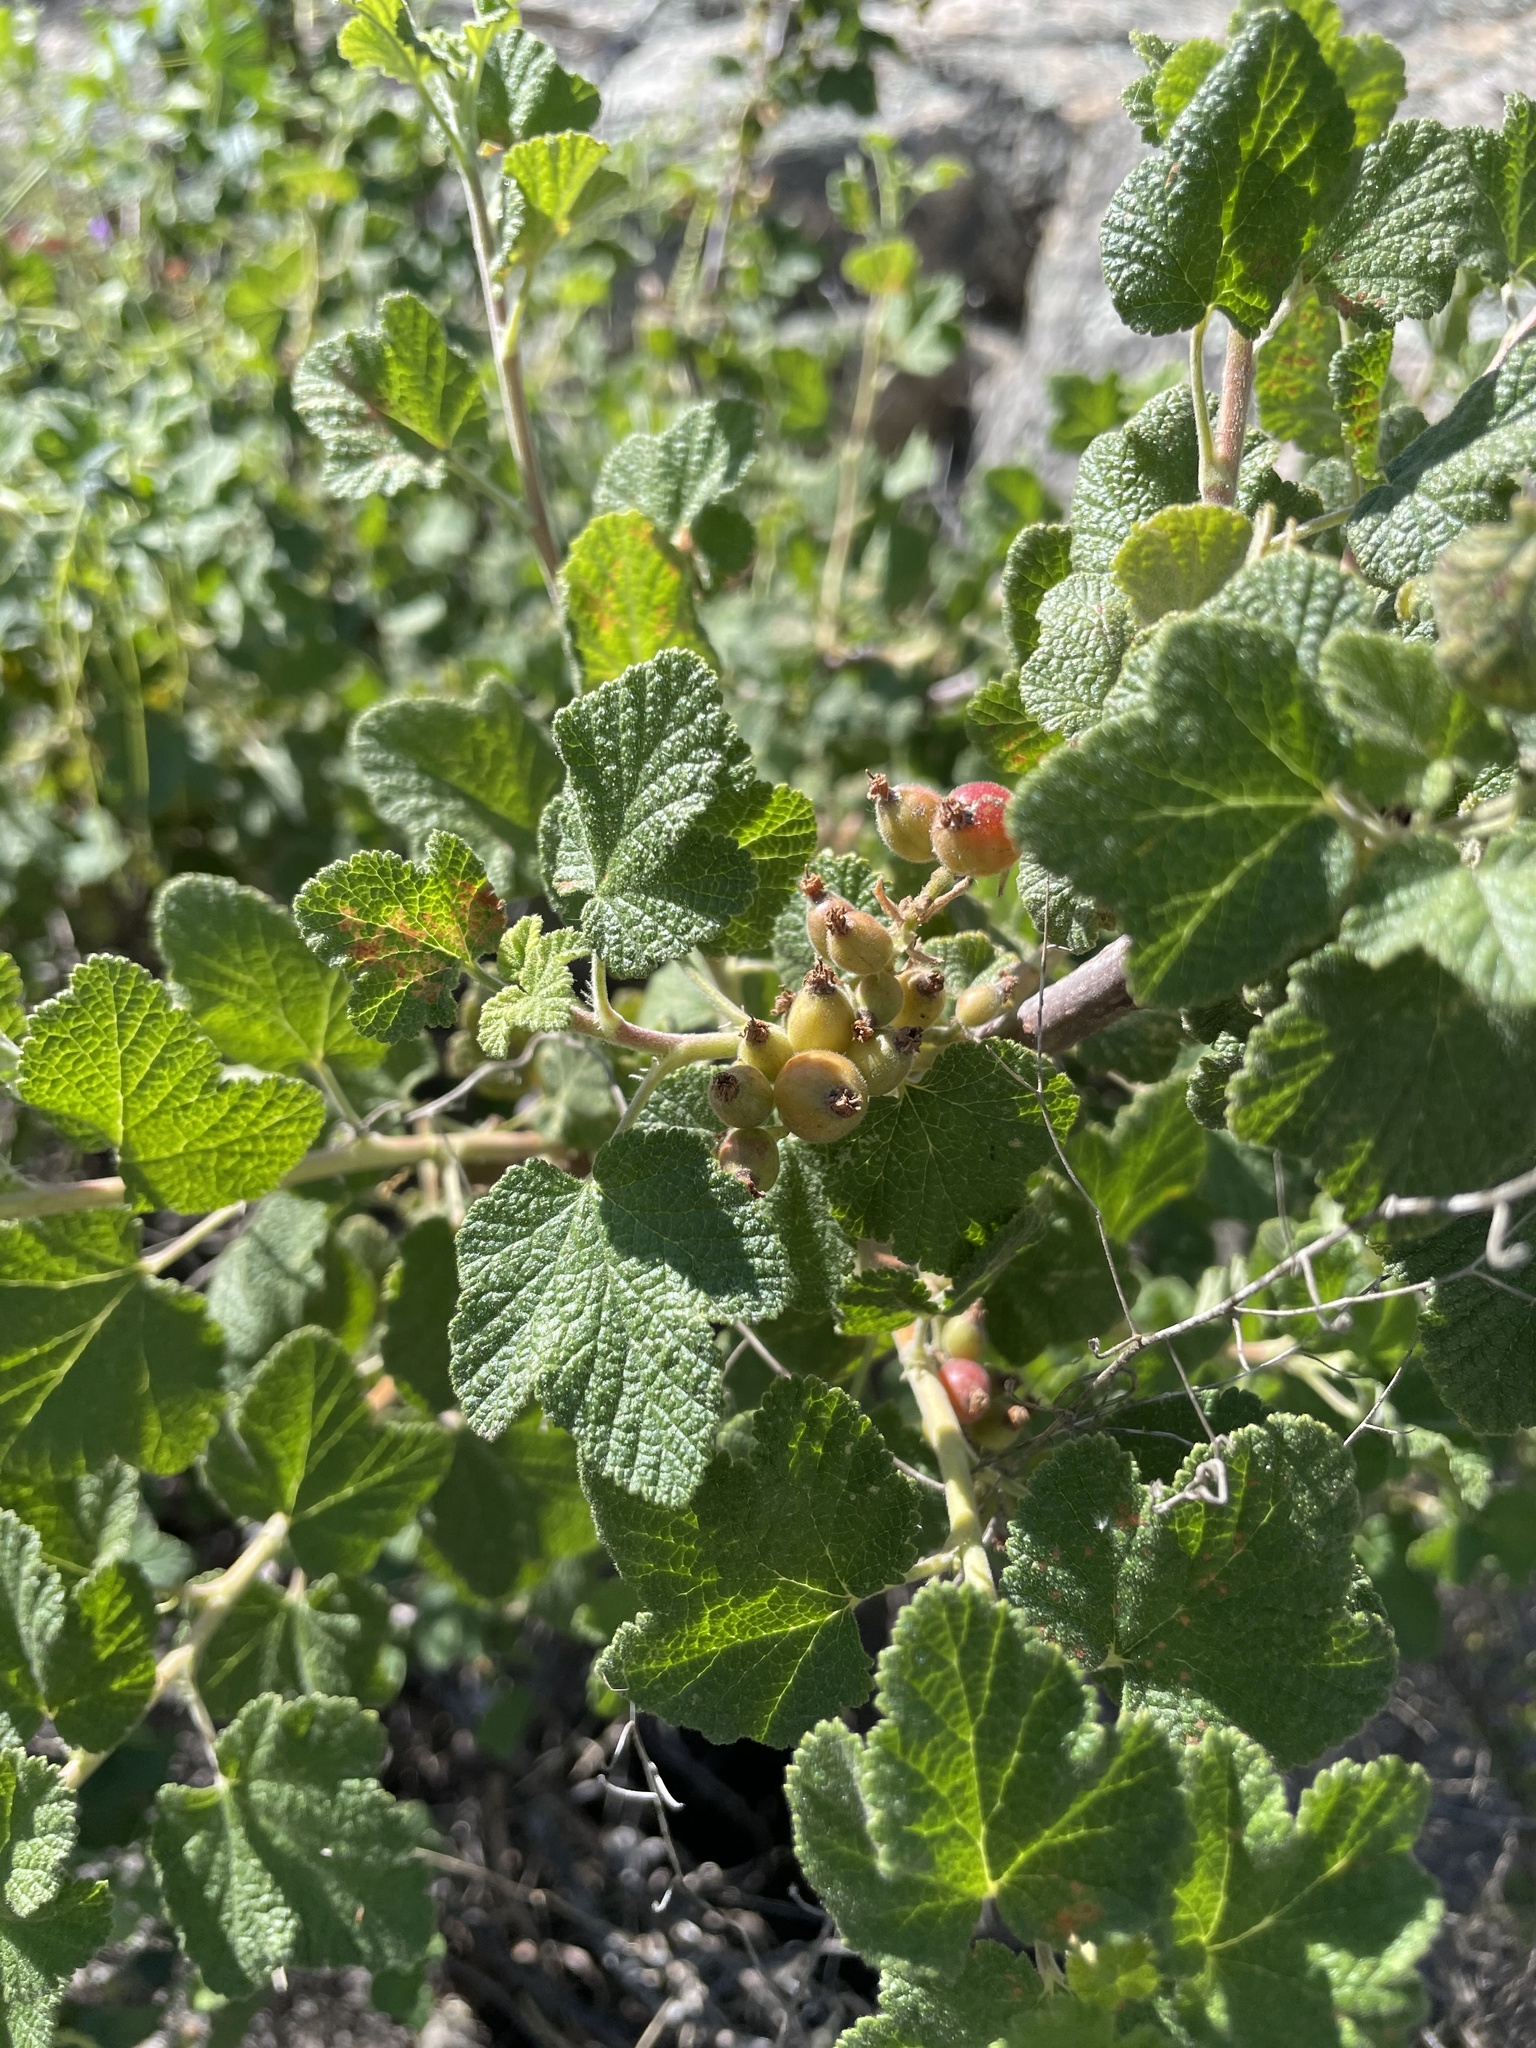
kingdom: Plantae
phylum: Tracheophyta
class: Magnoliopsida
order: Saxifragales
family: Grossulariaceae
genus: Ribes
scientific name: Ribes indecorum
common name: White-flower currant
